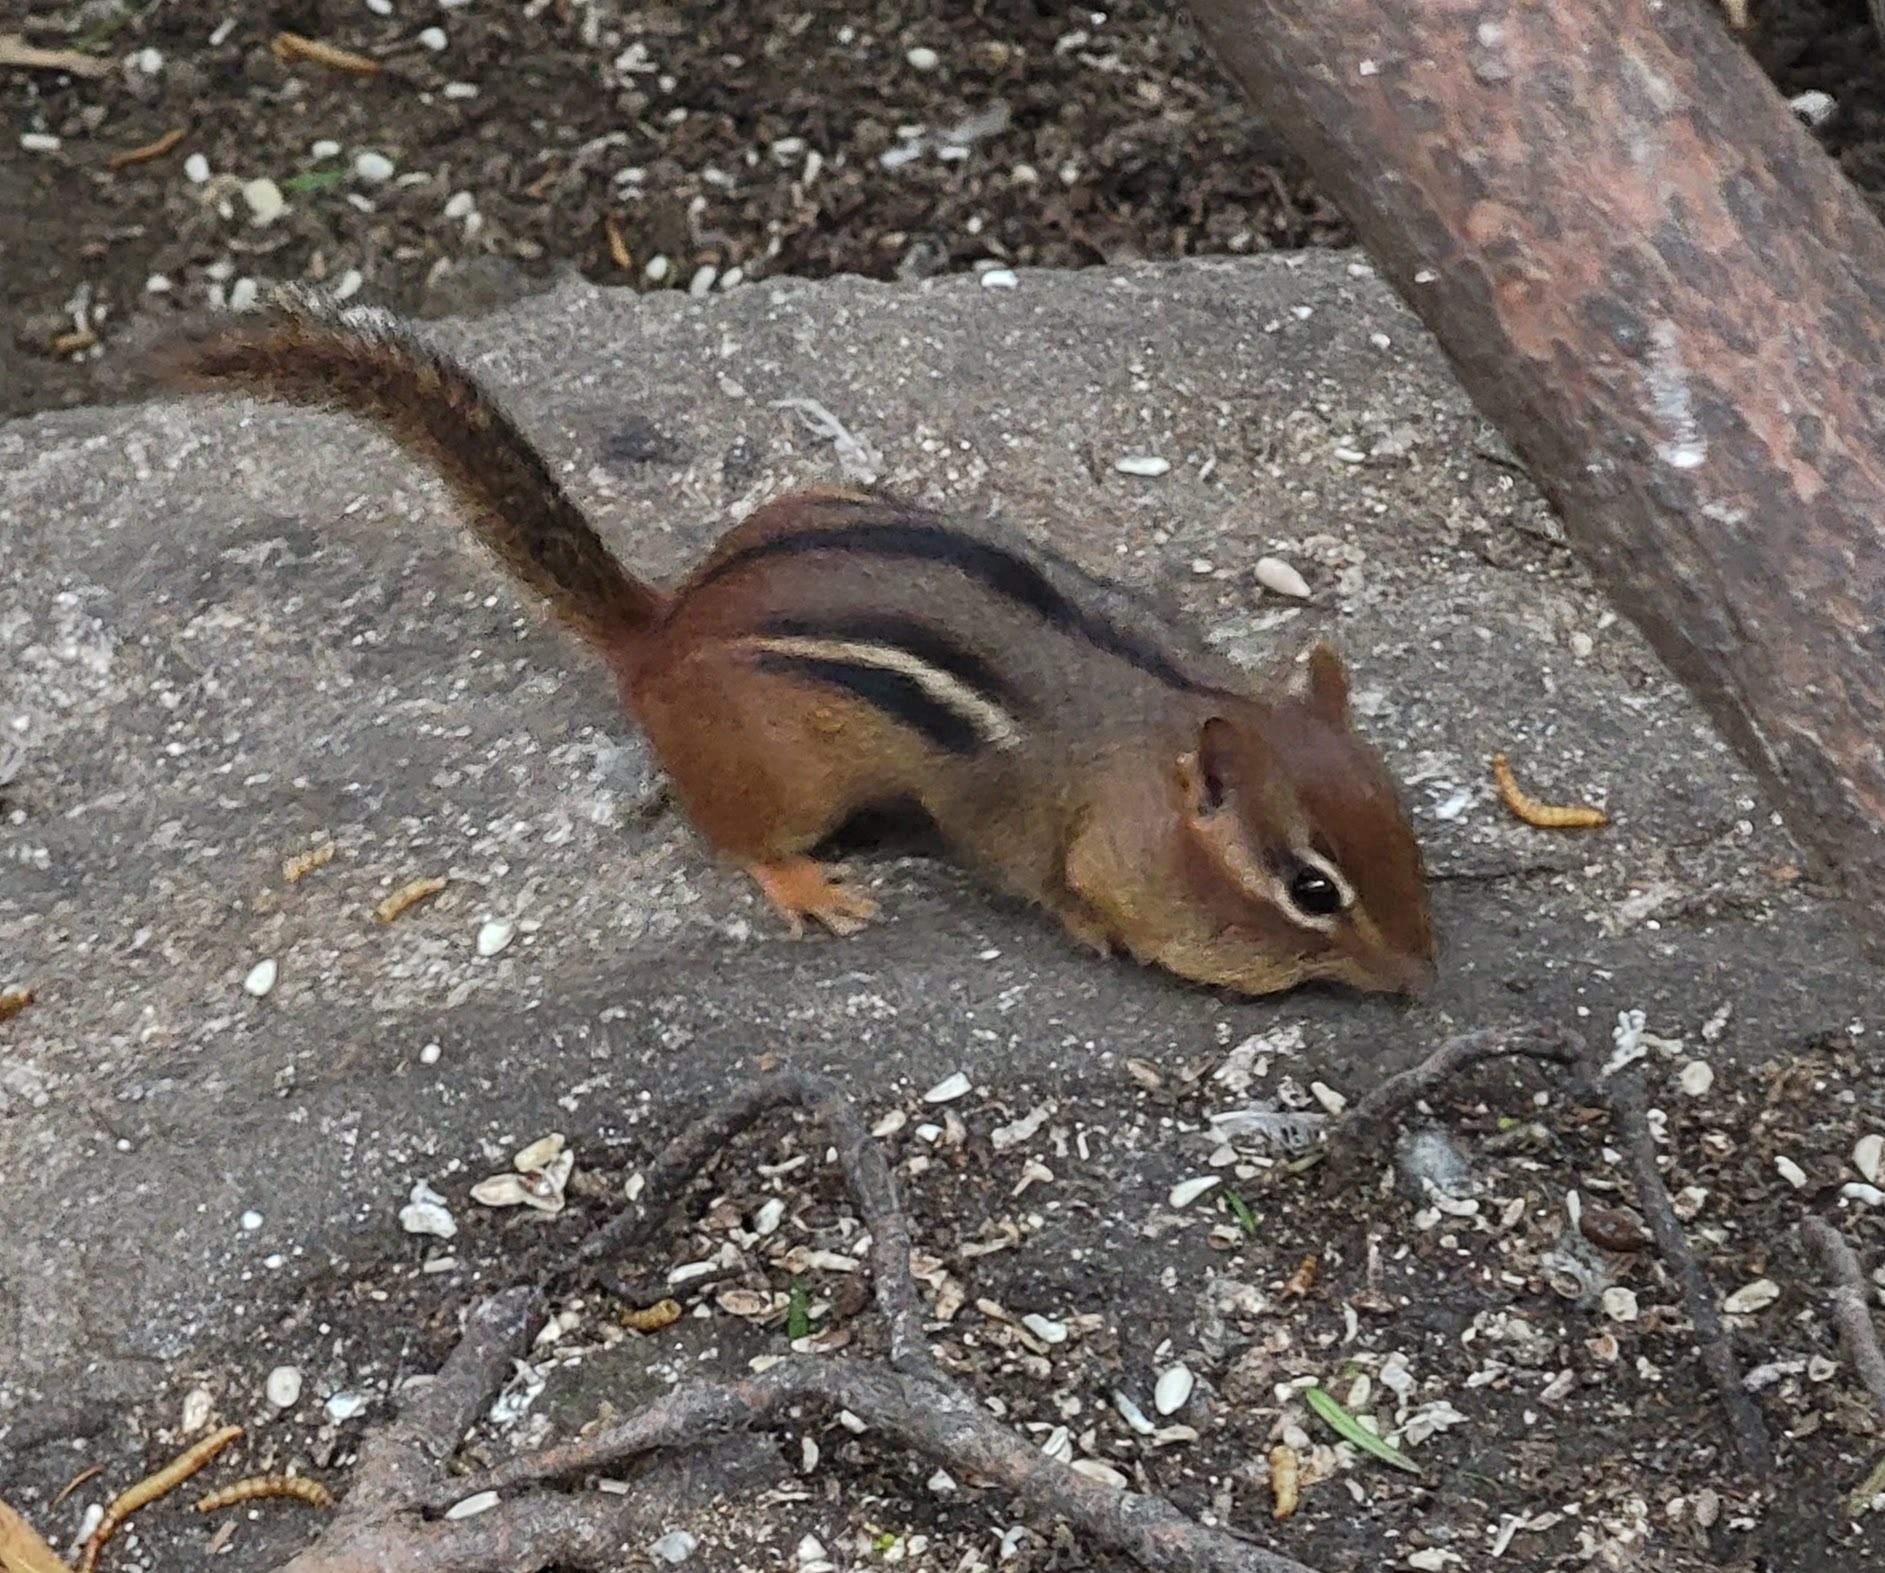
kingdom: Animalia
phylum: Chordata
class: Mammalia
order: Rodentia
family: Sciuridae
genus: Tamias
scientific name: Tamias striatus
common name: Eastern chipmunk
